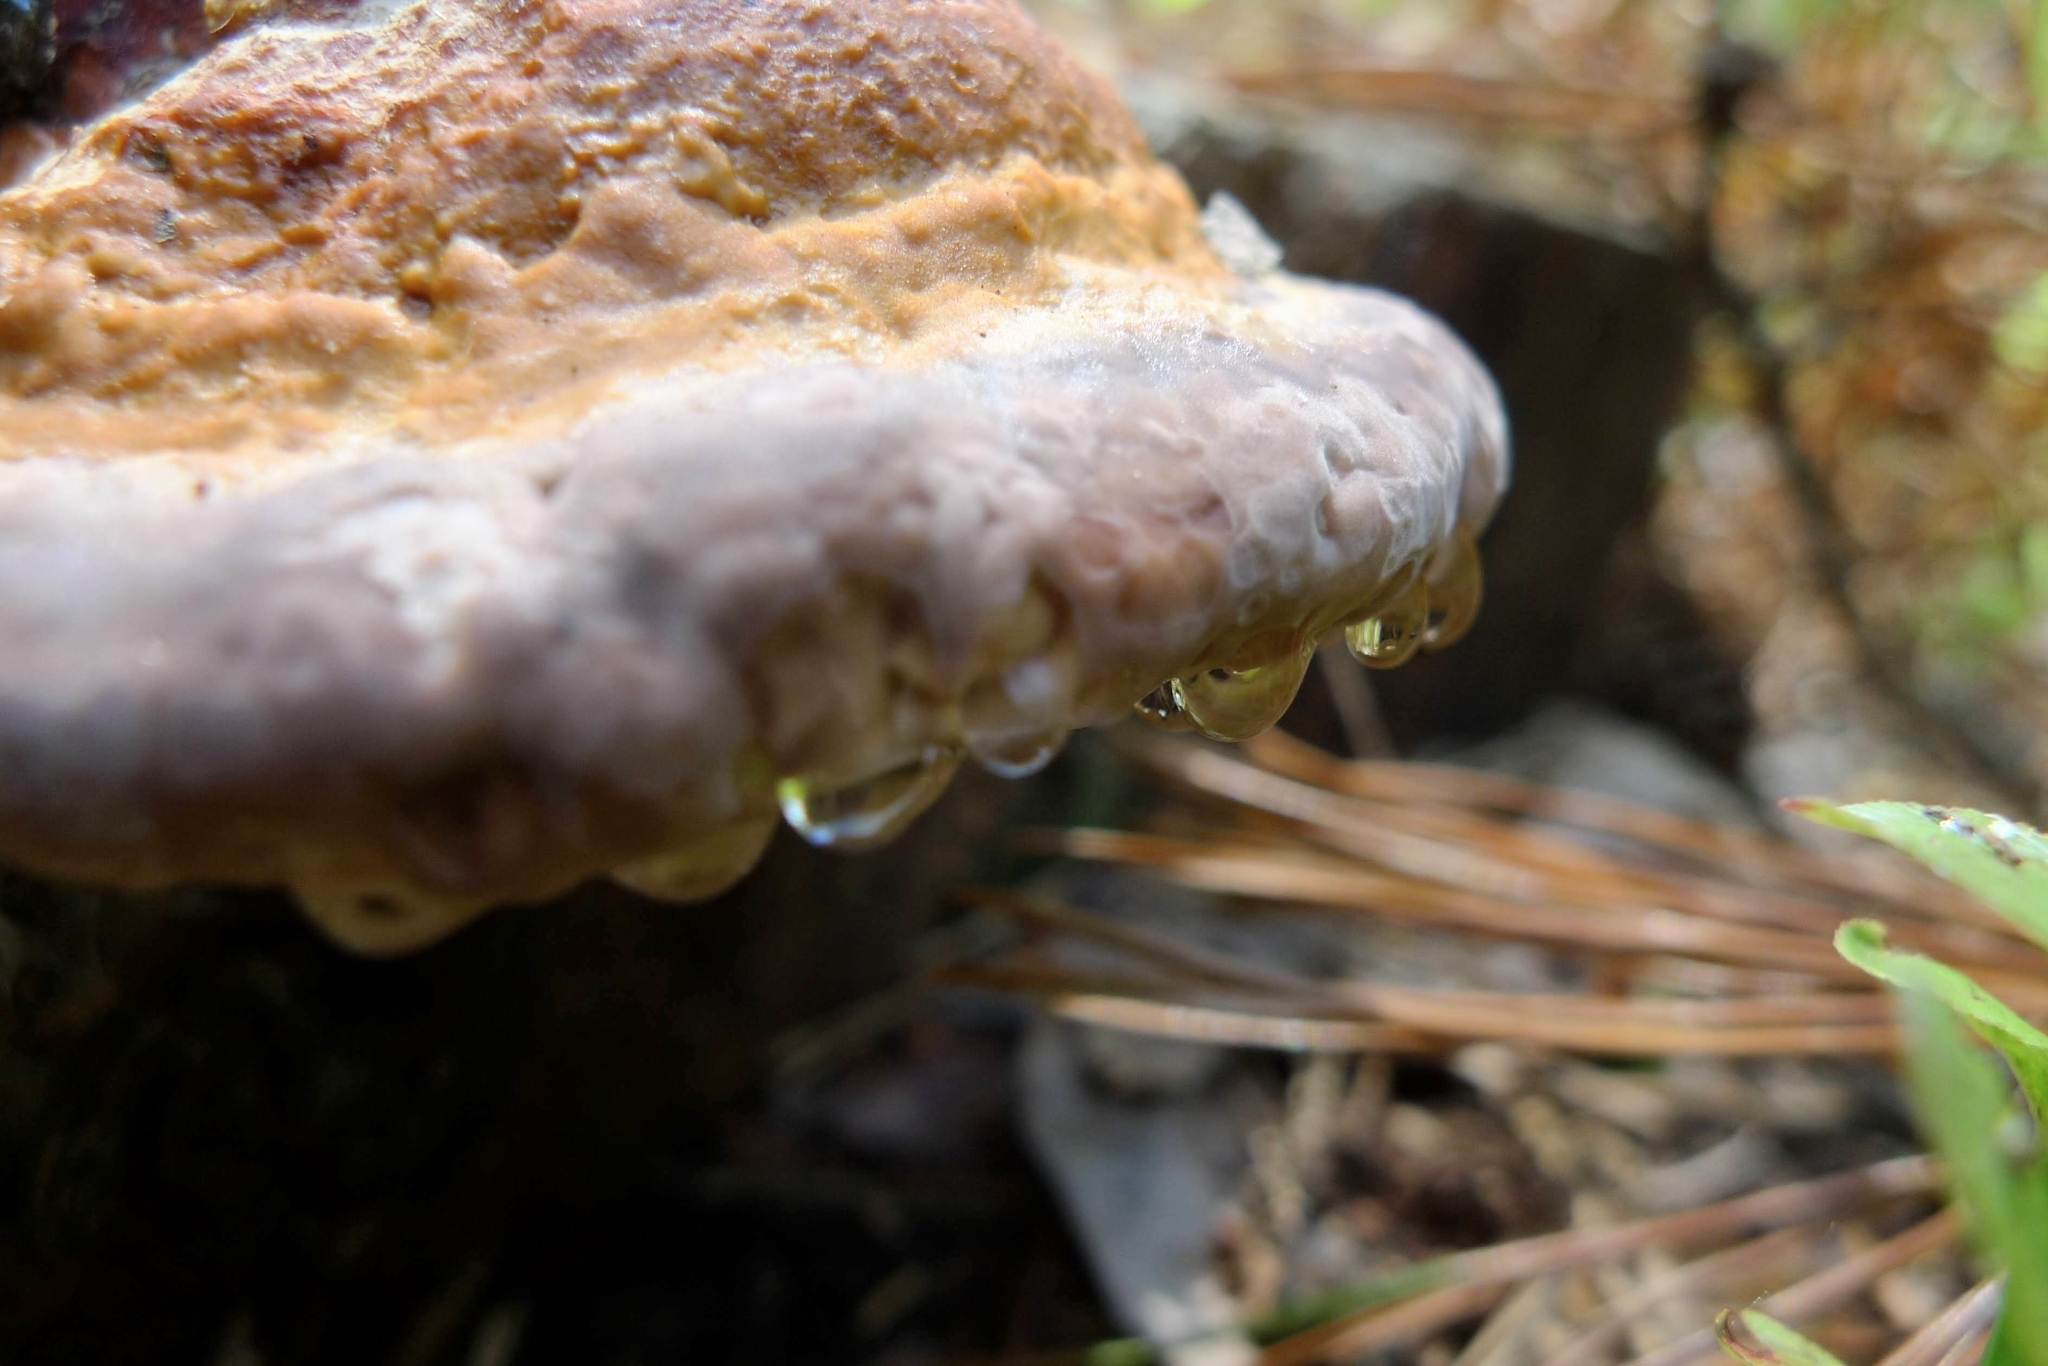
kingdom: Fungi
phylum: Basidiomycota
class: Agaricomycetes
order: Polyporales
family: Fomitopsidaceae
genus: Fomitopsis
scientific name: Fomitopsis pinicola
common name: Red-belted bracket
